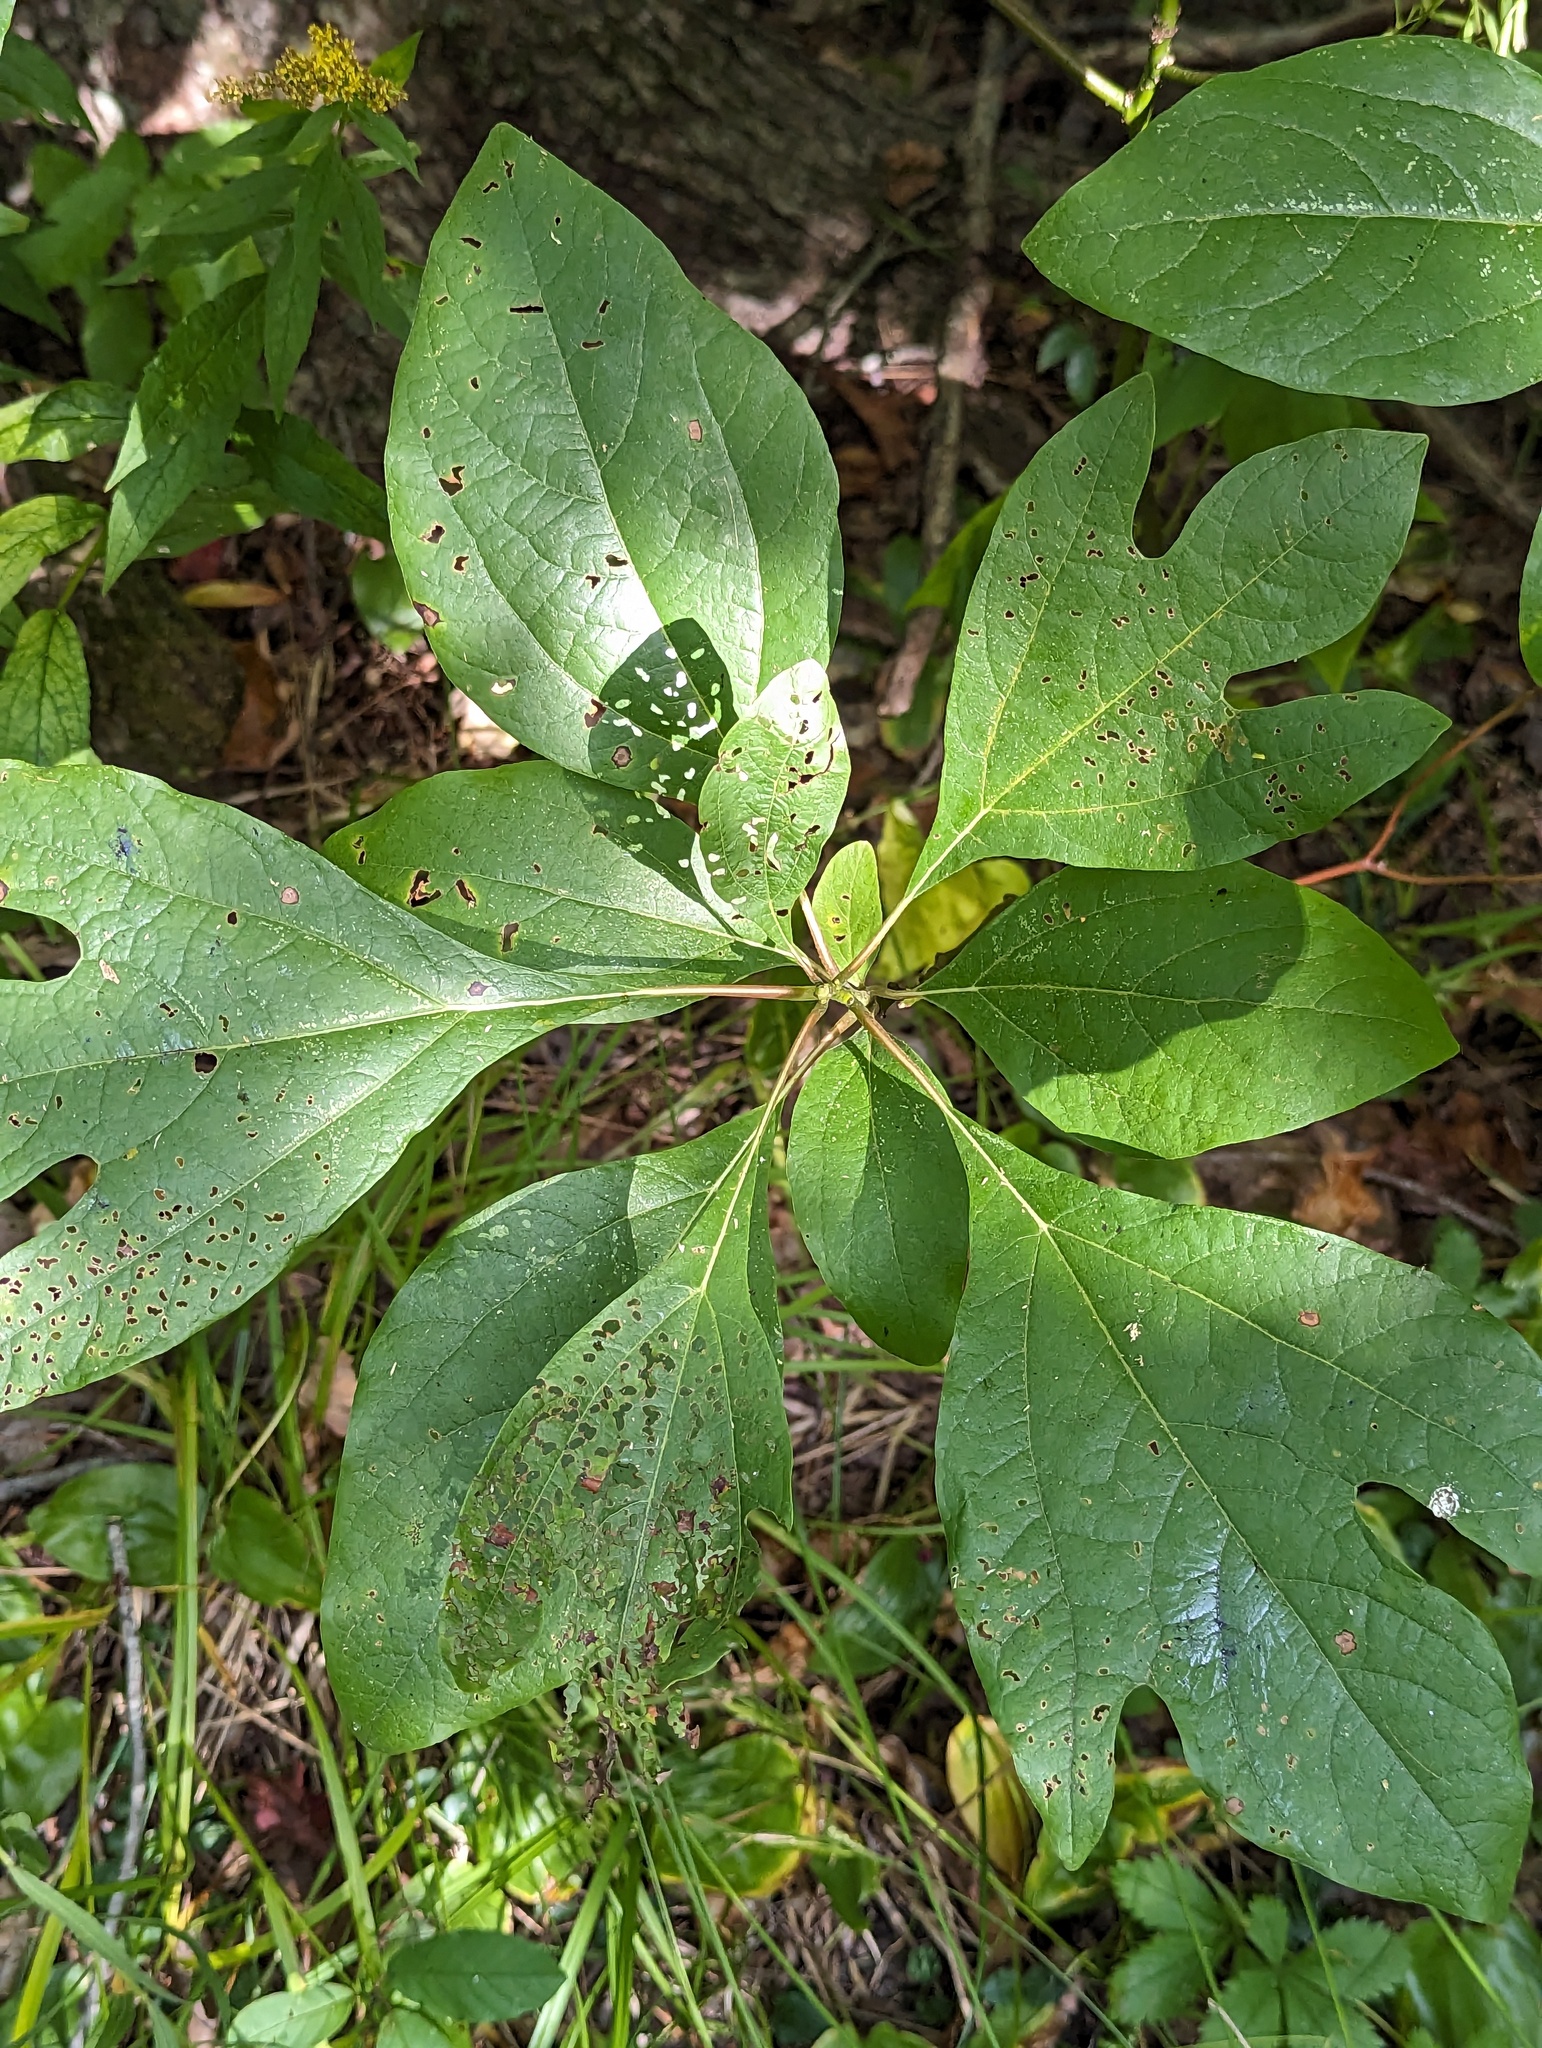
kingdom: Plantae
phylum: Tracheophyta
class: Magnoliopsida
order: Laurales
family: Lauraceae
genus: Sassafras
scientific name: Sassafras albidum
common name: Sassafras
